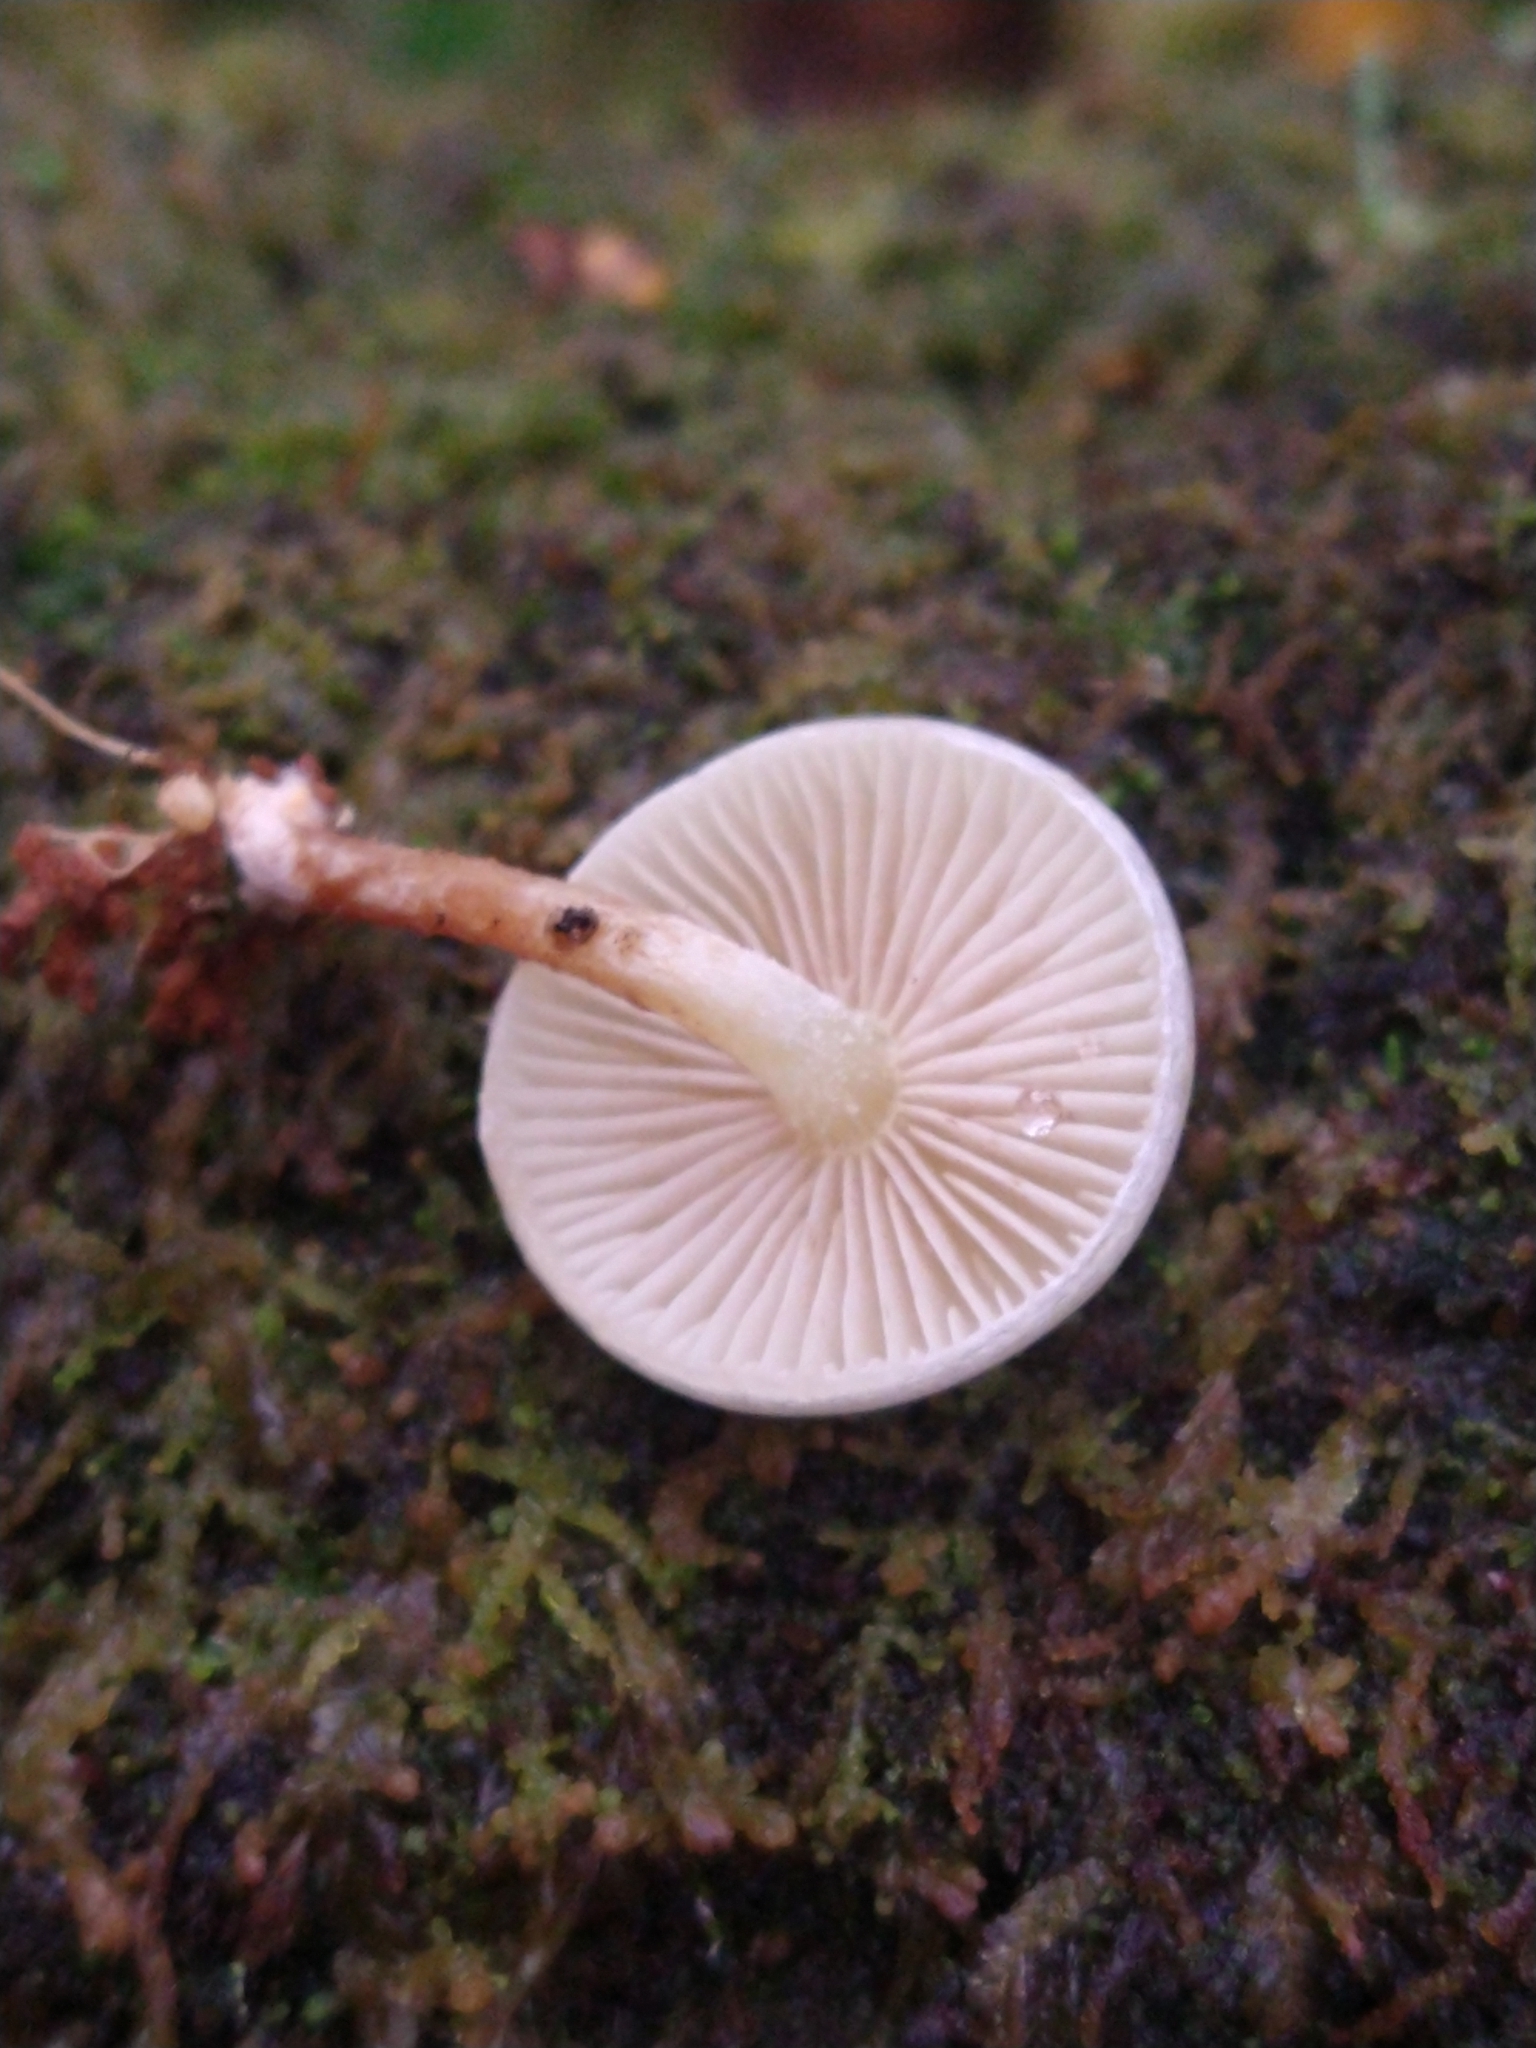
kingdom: Fungi
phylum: Basidiomycota
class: Agaricomycetes
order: Agaricales
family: Physalacriaceae
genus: Mucidula
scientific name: Mucidula mucida
